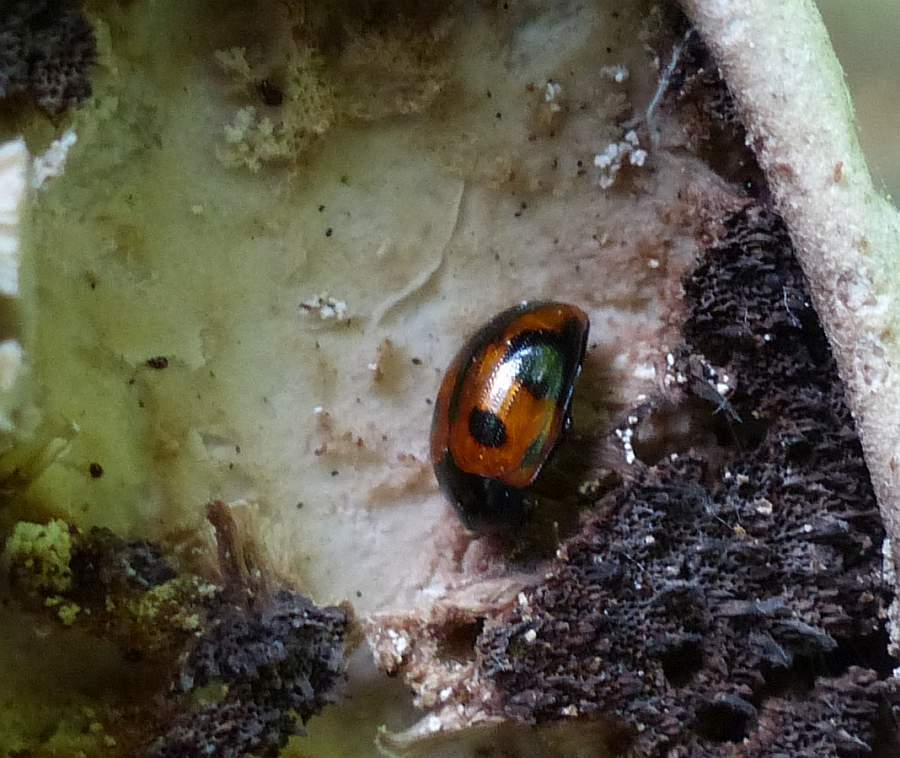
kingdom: Animalia
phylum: Arthropoda
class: Insecta
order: Coleoptera
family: Tenebrionidae
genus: Diaperis
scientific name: Diaperis maculata
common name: Darkling beetle
